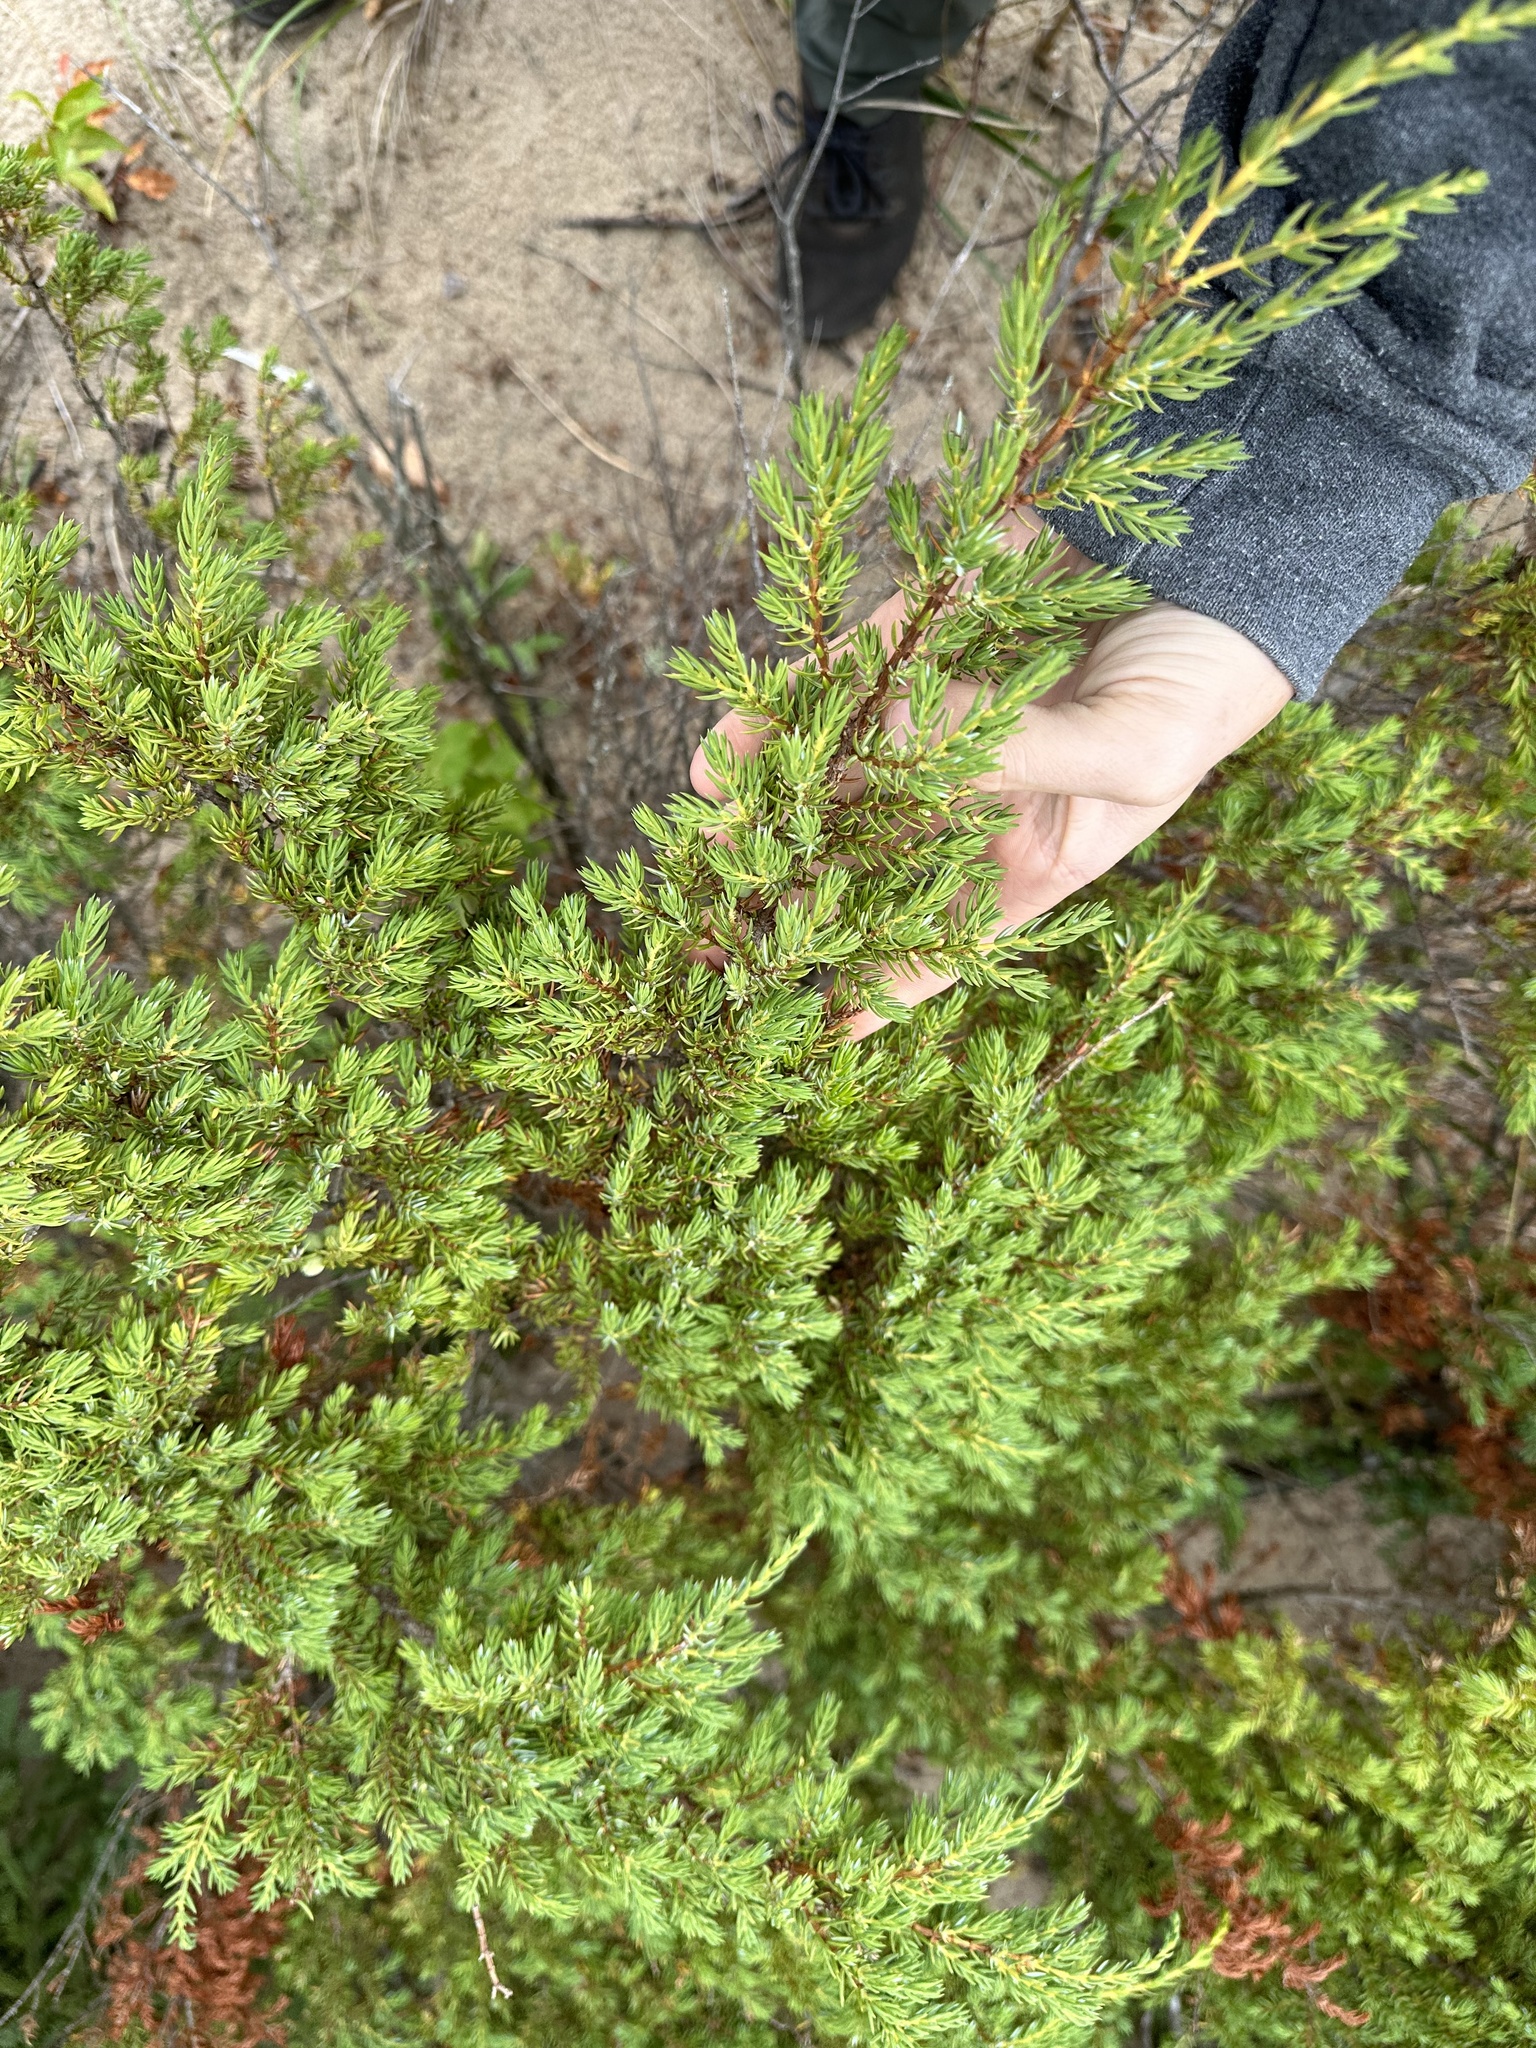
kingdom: Plantae
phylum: Tracheophyta
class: Pinopsida
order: Pinales
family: Cupressaceae
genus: Juniperus
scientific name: Juniperus communis
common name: Common juniper
